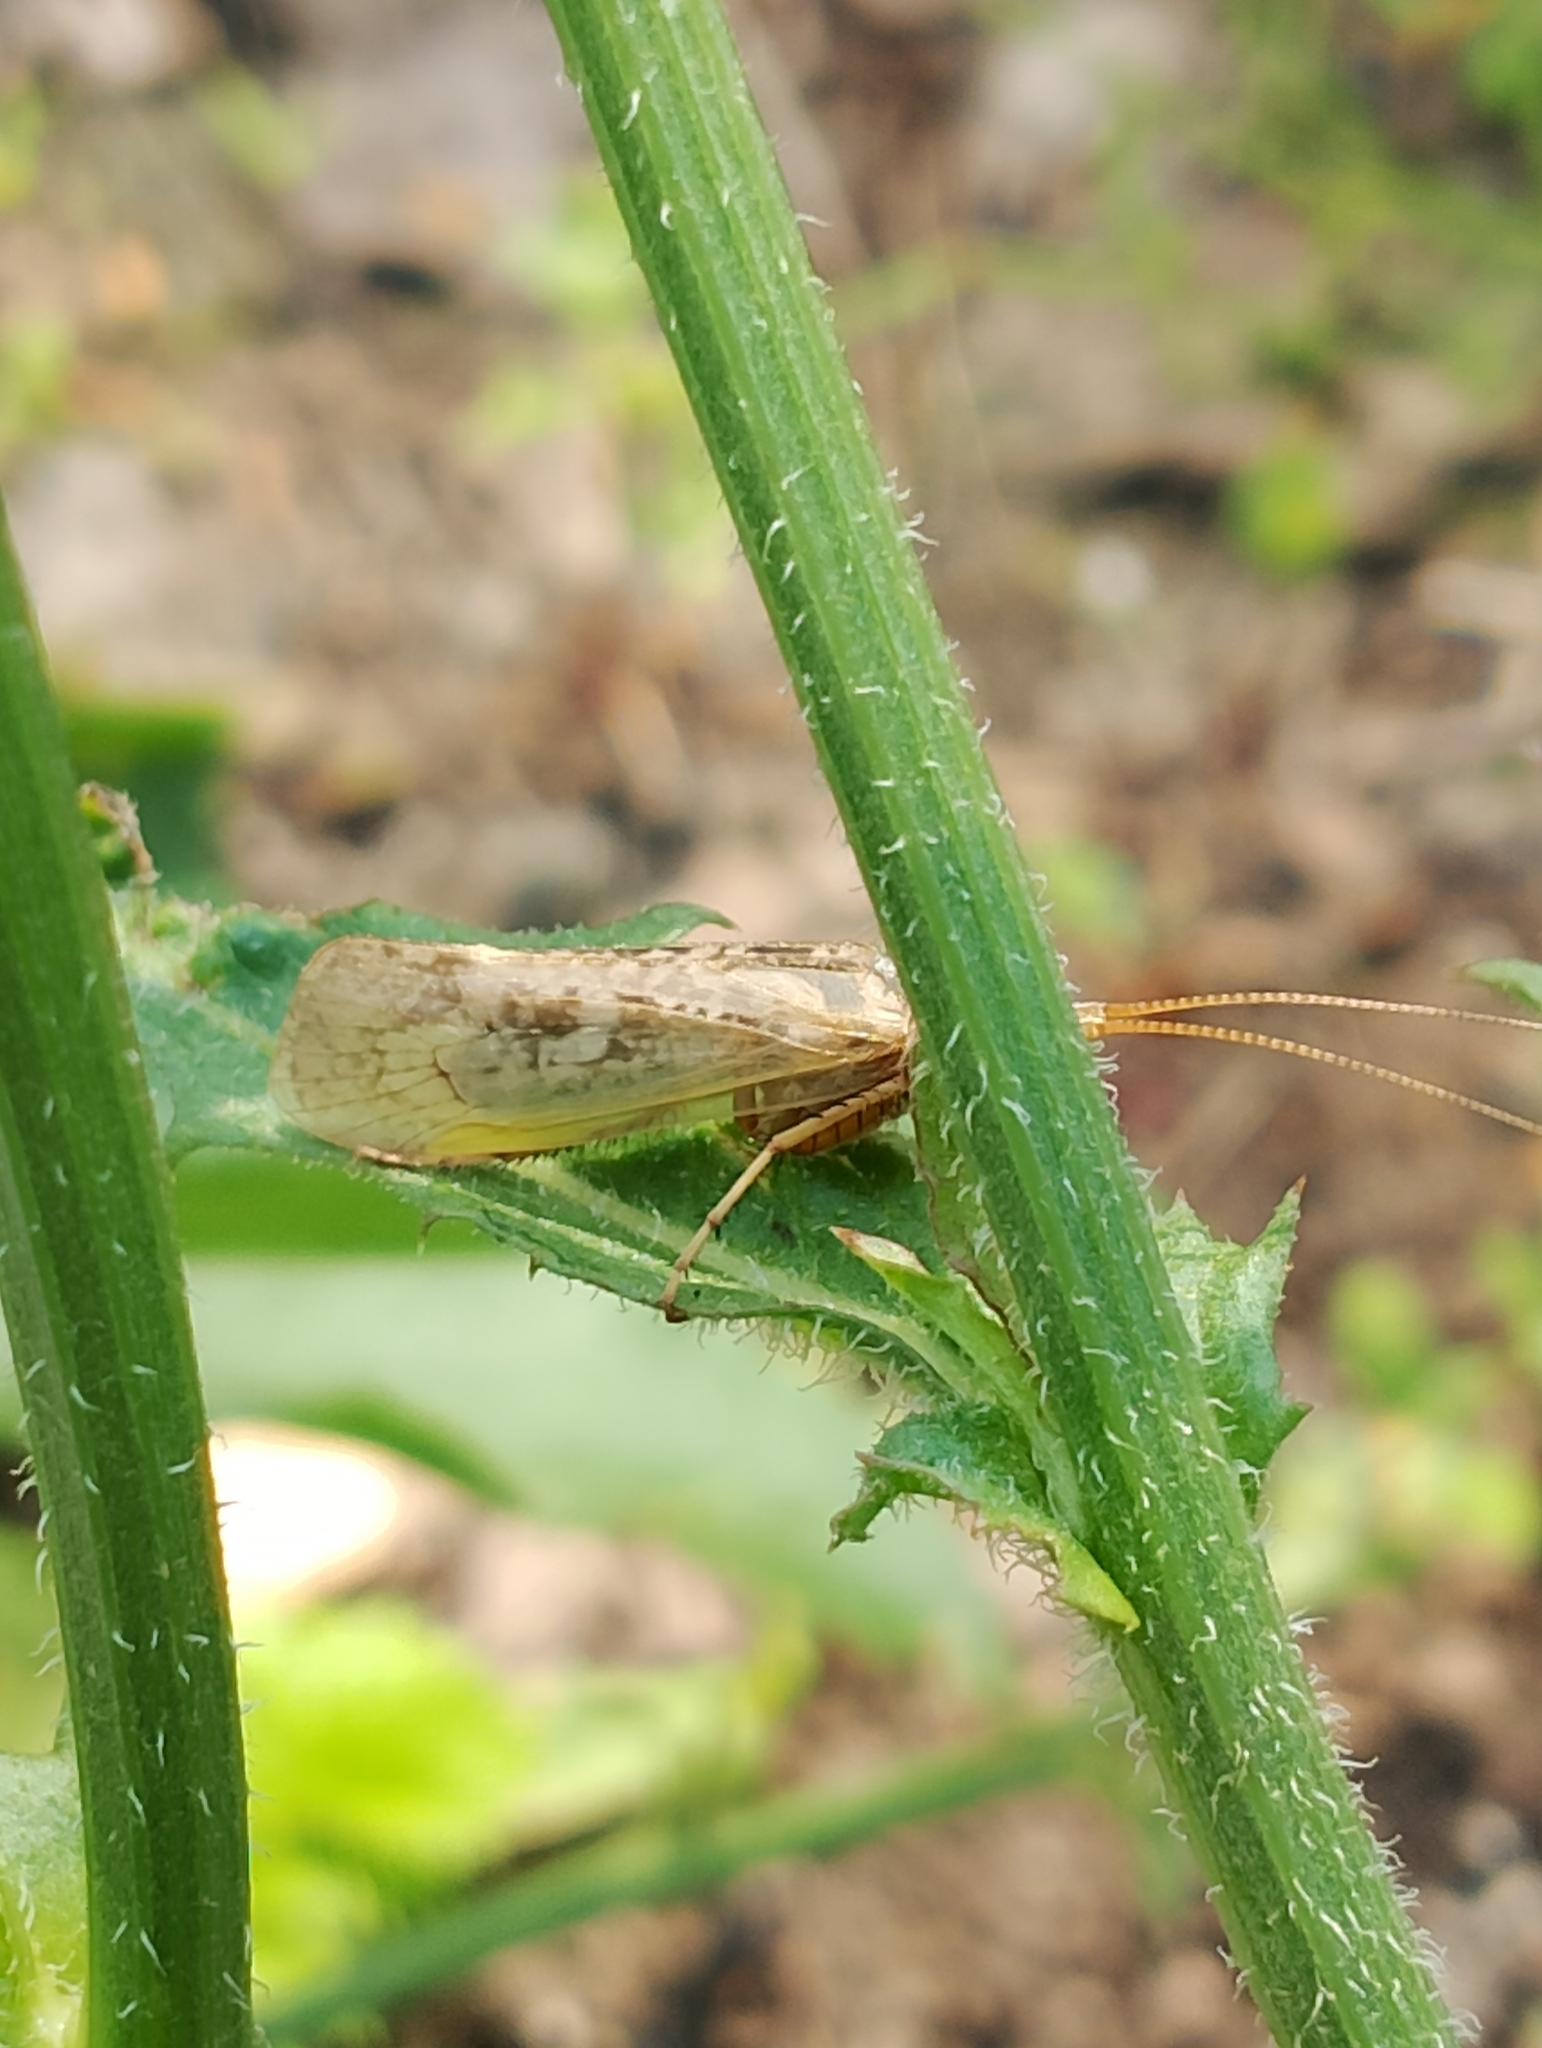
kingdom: Animalia
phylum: Arthropoda
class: Insecta
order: Trichoptera
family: Limnephilidae
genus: Limnephilus
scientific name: Limnephilus flavicornis
